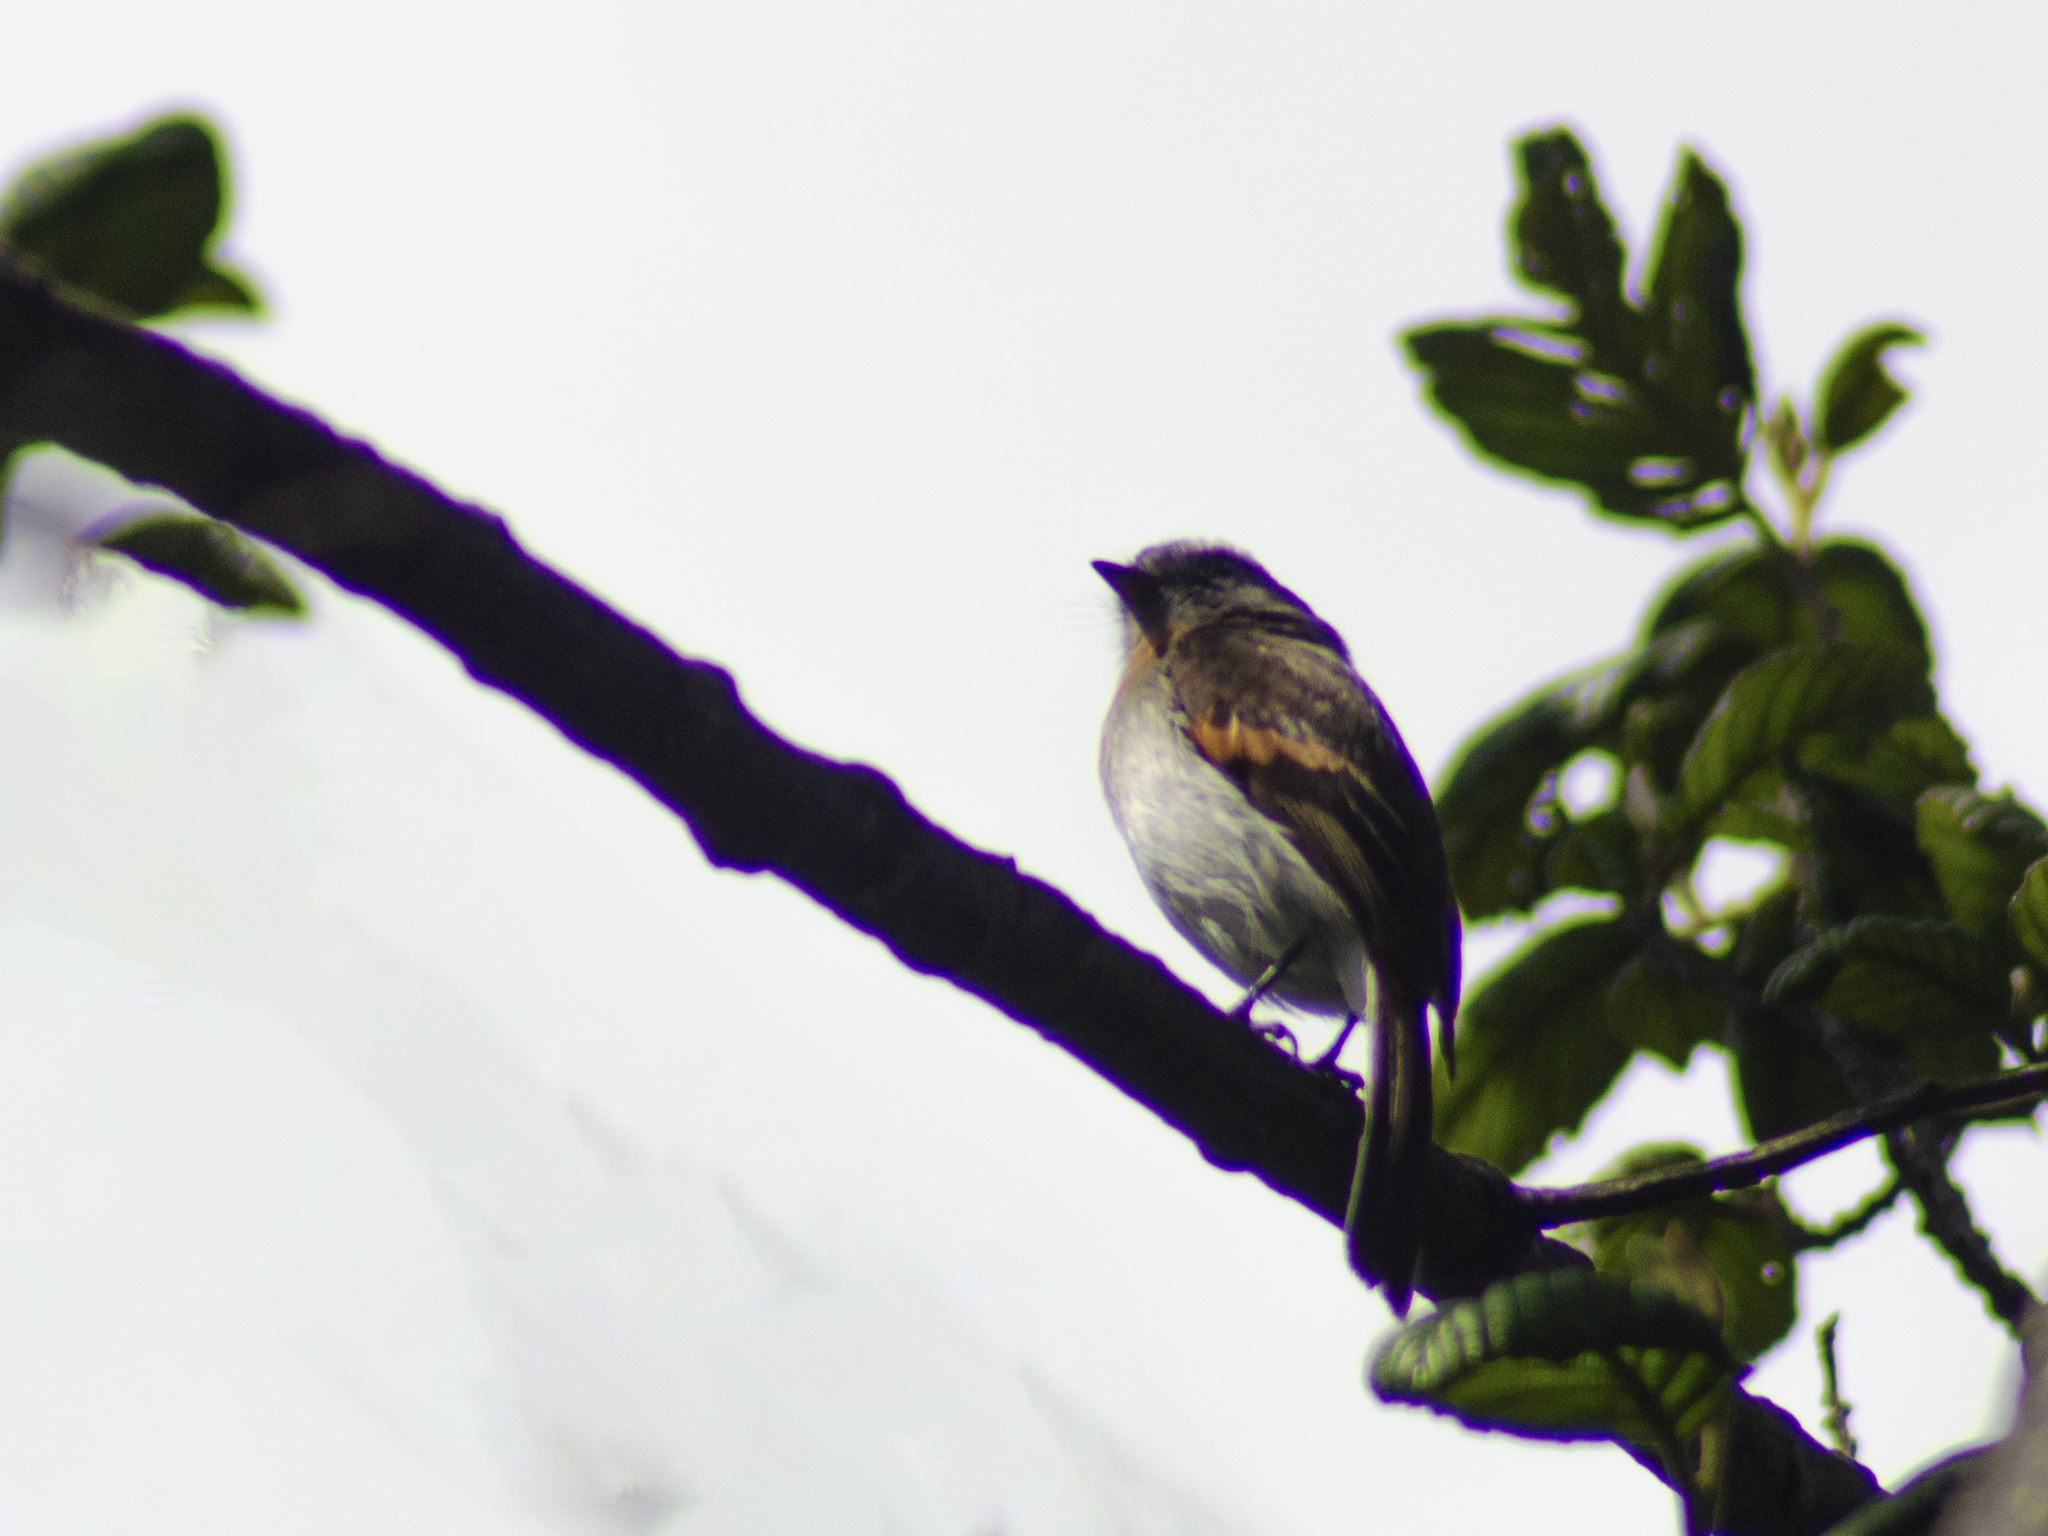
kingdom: Animalia
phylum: Chordata
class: Aves
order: Passeriformes
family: Tyrannidae
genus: Ochthoeca
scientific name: Ochthoeca rufipectoralis
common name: Rufous-breasted chat-tyrant
